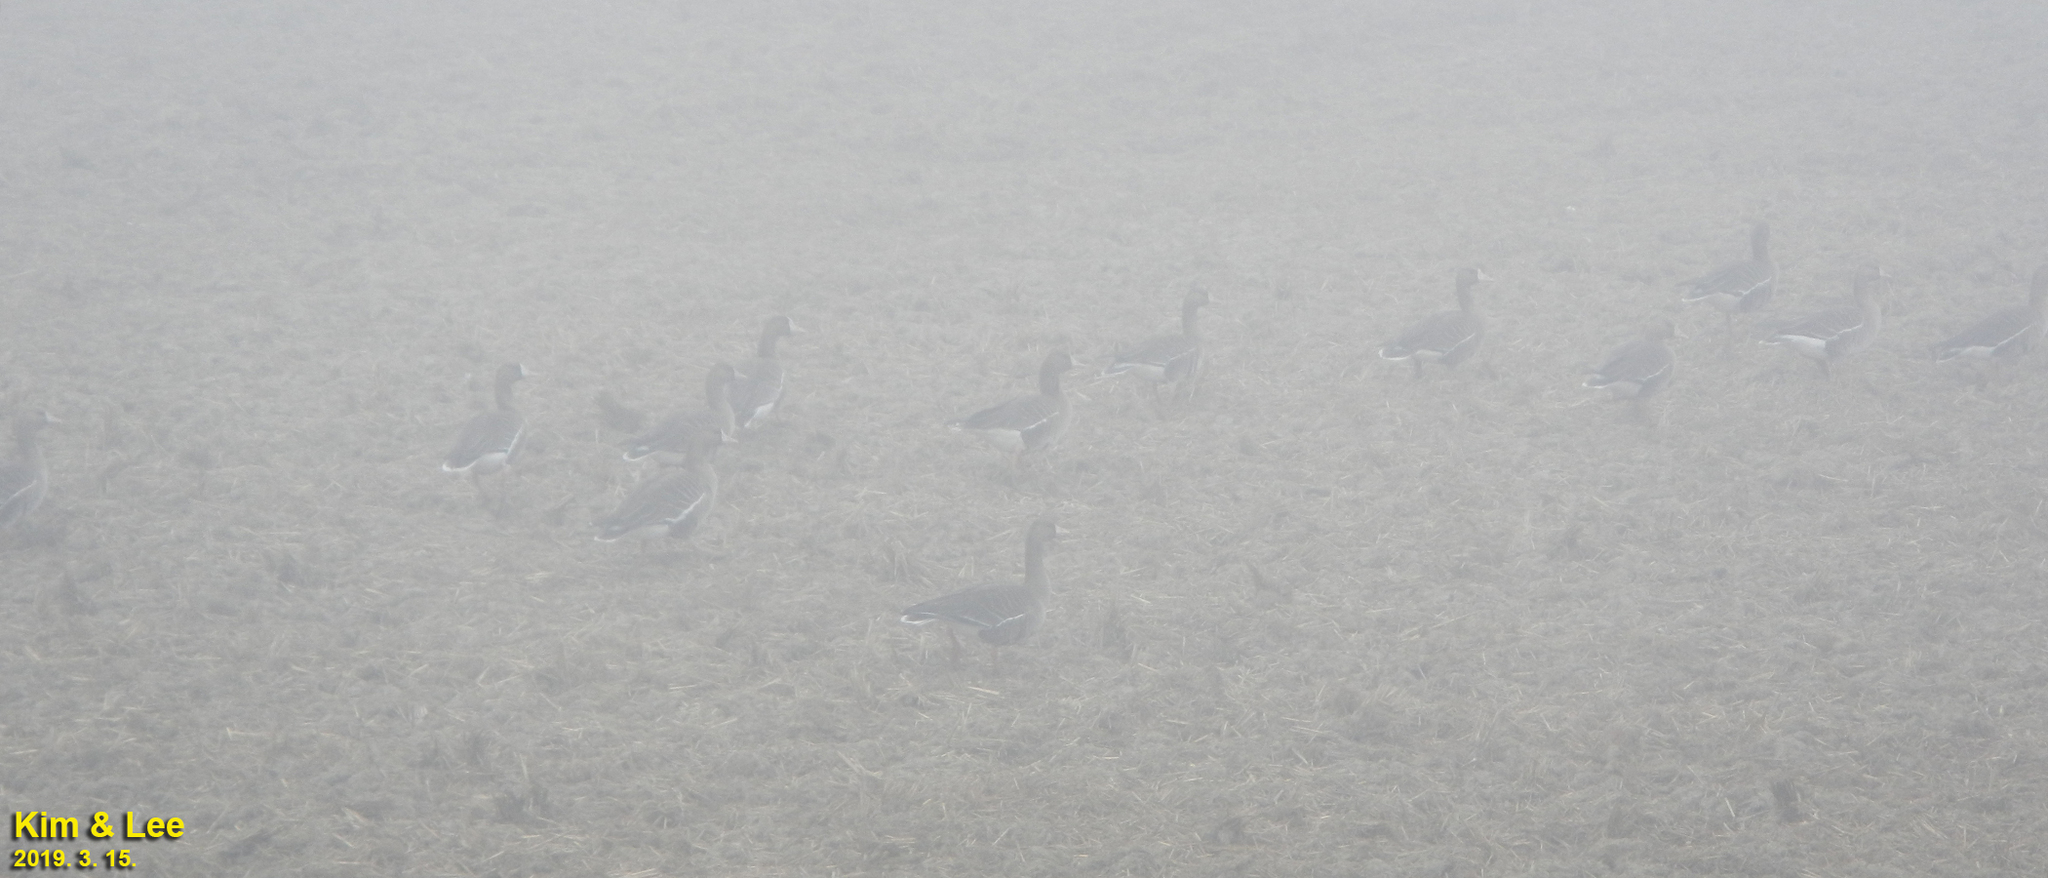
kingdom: Animalia
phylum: Chordata
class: Aves
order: Anseriformes
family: Anatidae
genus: Anser
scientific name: Anser albifrons
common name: Greater white-fronted goose
